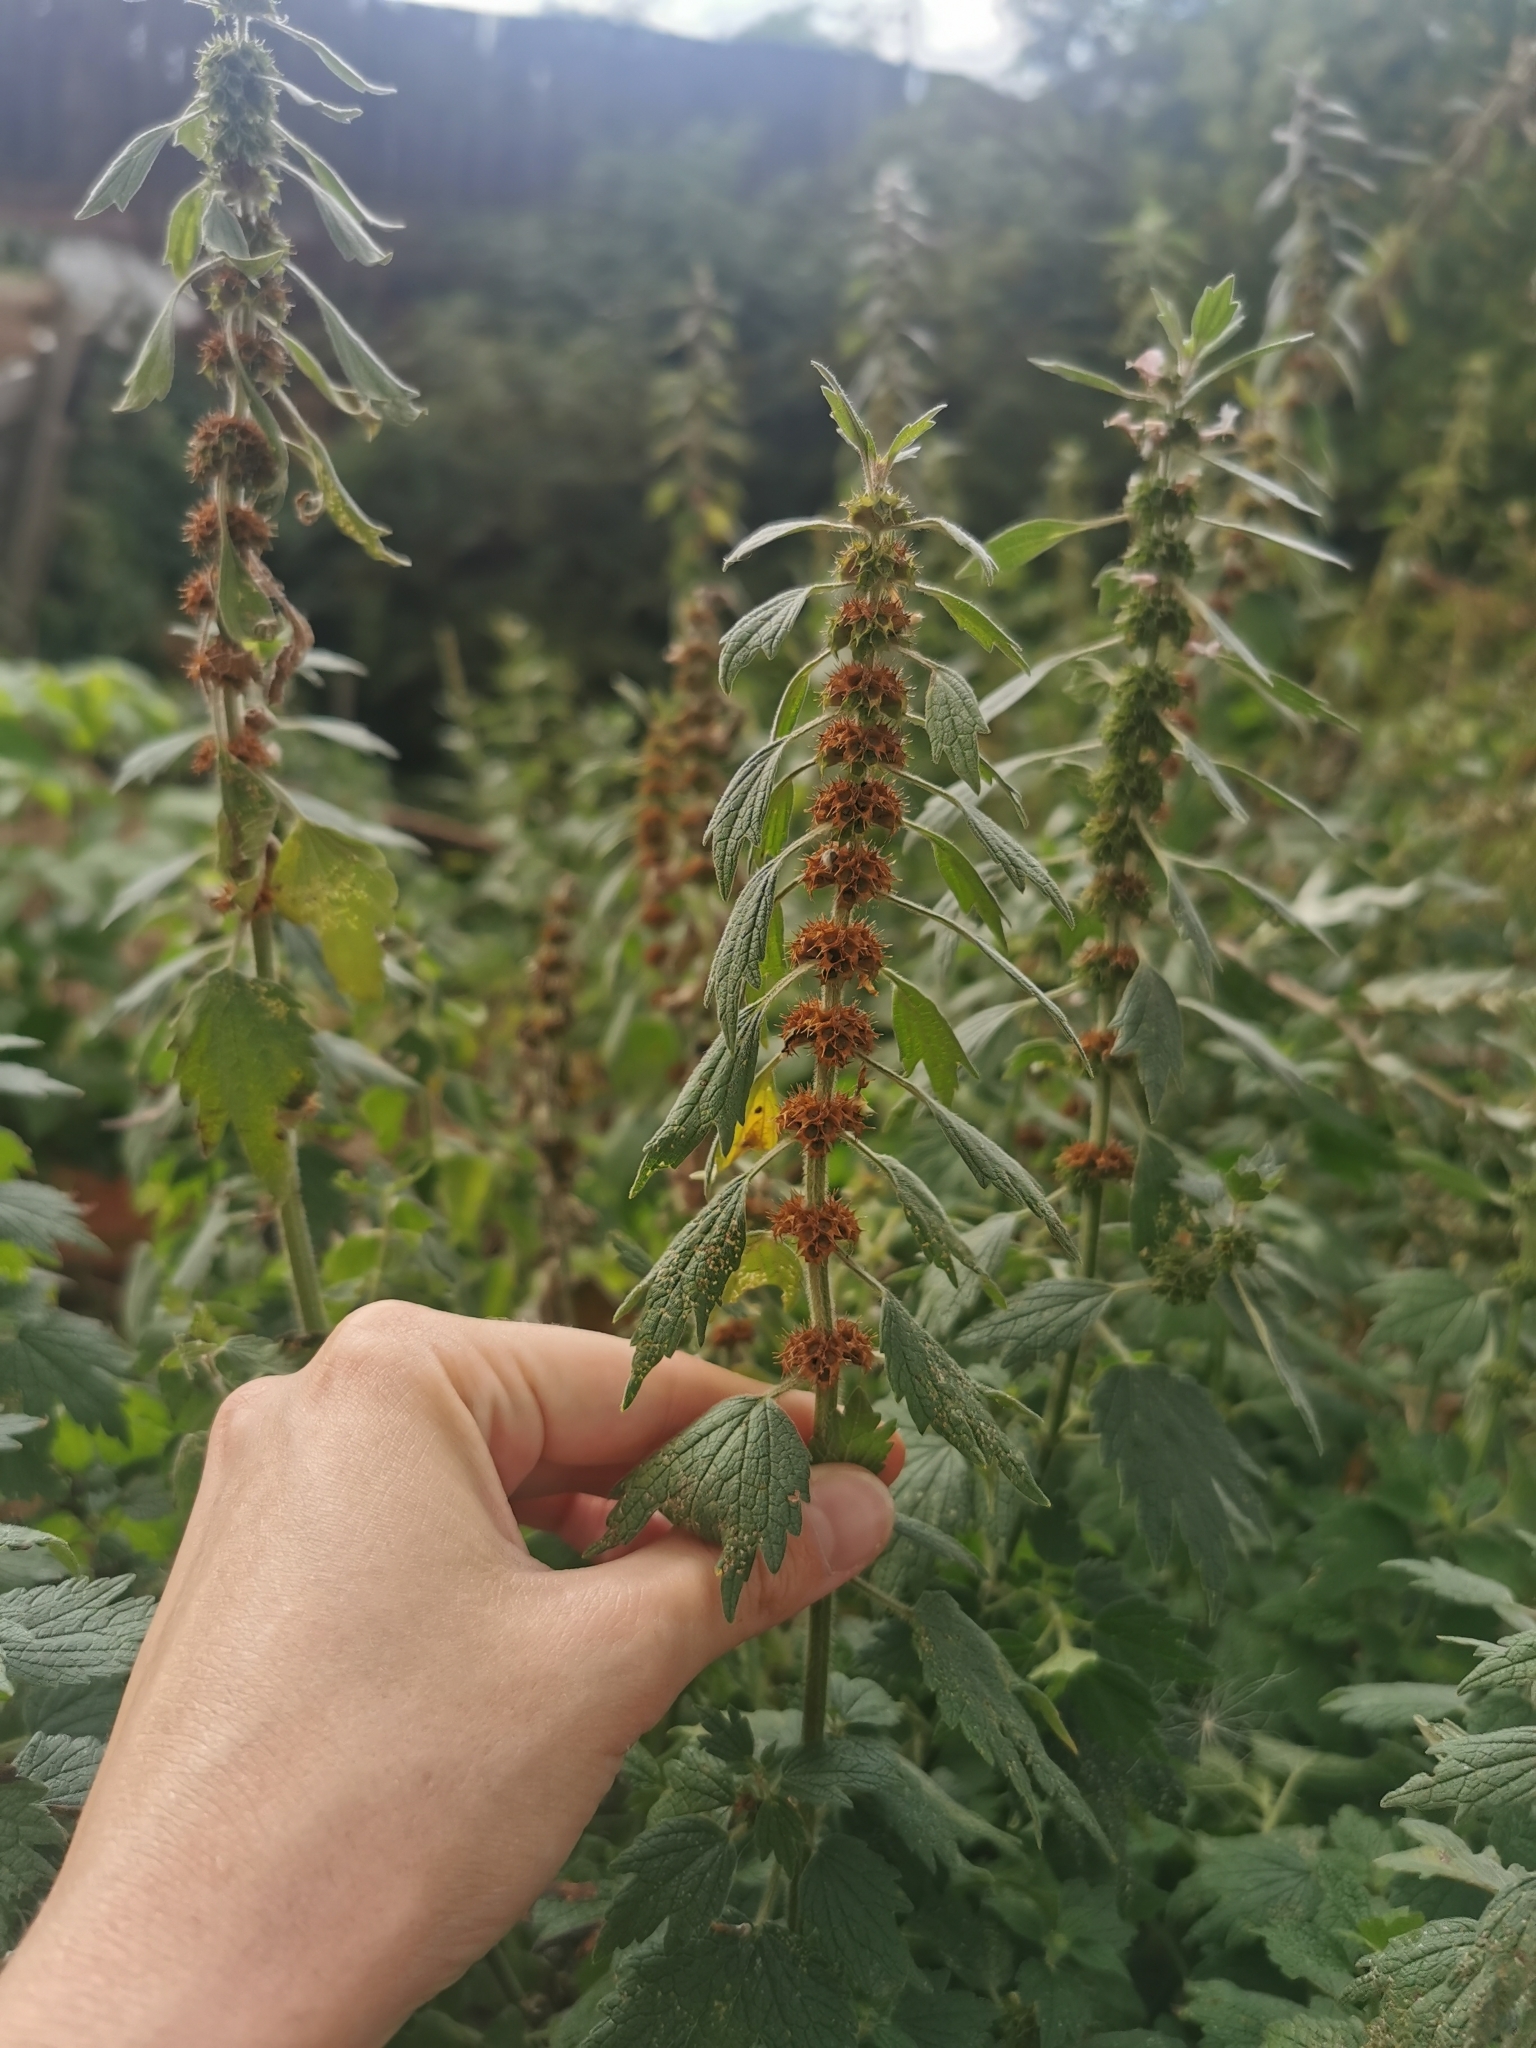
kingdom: Plantae
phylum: Tracheophyta
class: Magnoliopsida
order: Lamiales
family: Lamiaceae
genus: Leonurus
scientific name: Leonurus quinquelobatus
